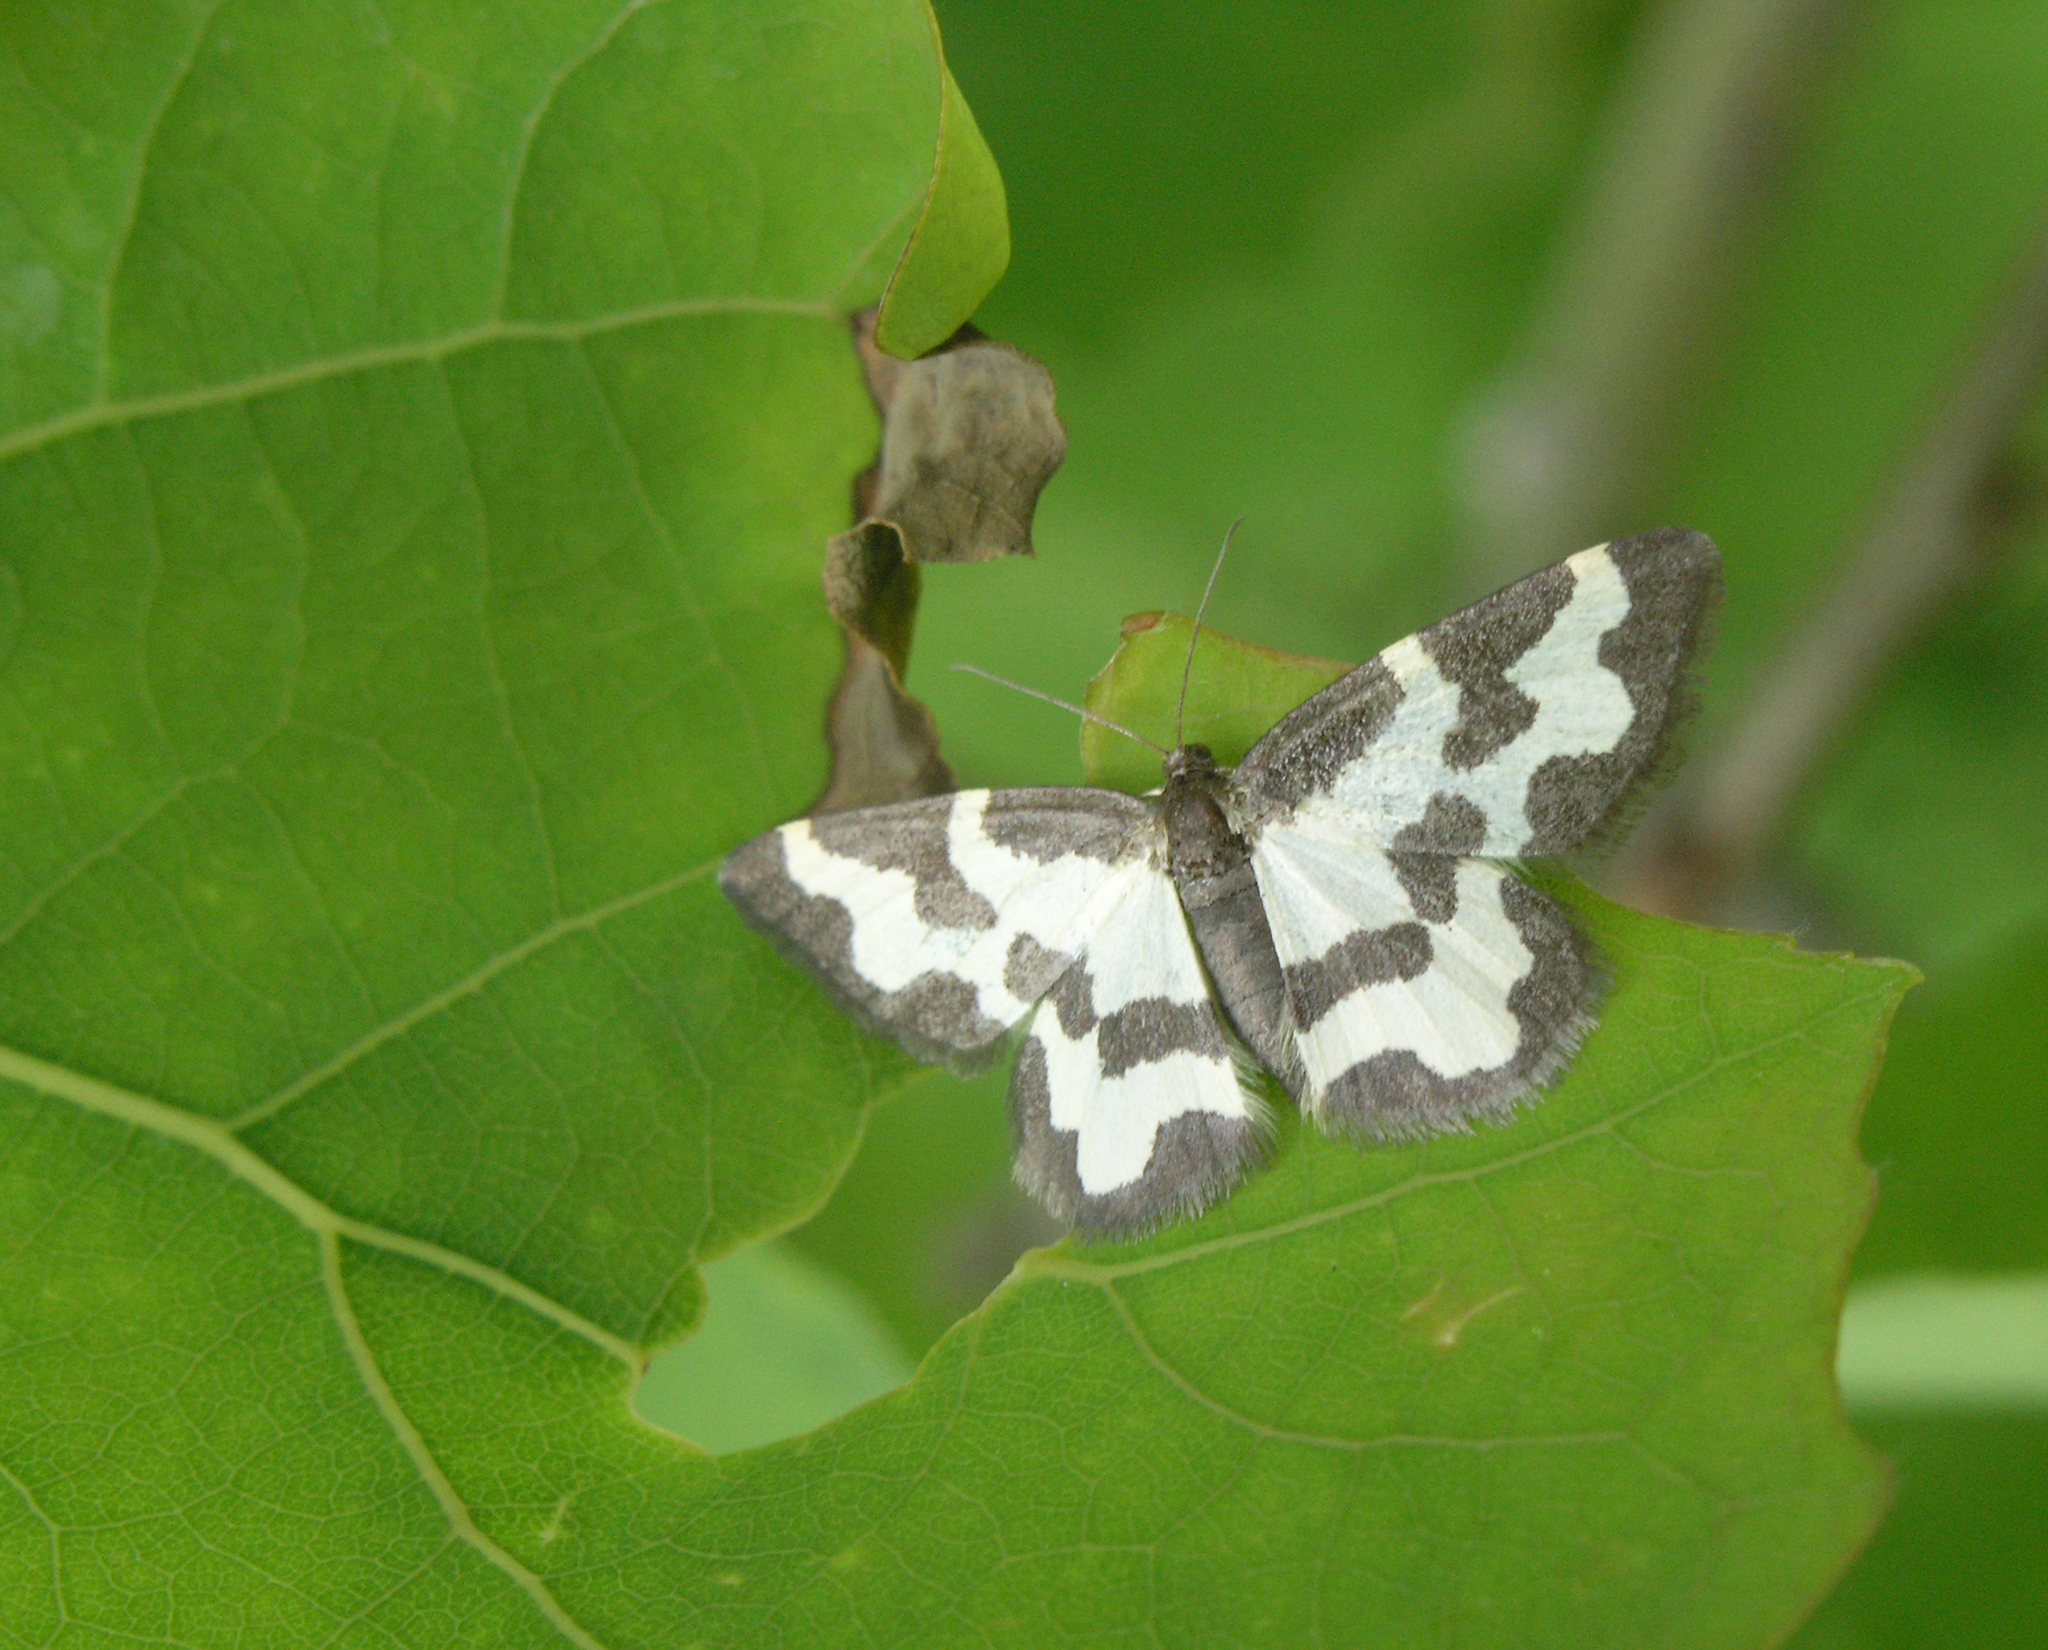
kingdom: Animalia
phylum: Arthropoda
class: Insecta
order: Lepidoptera
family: Geometridae
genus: Lomaspilis
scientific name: Lomaspilis marginata
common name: Clouded border
